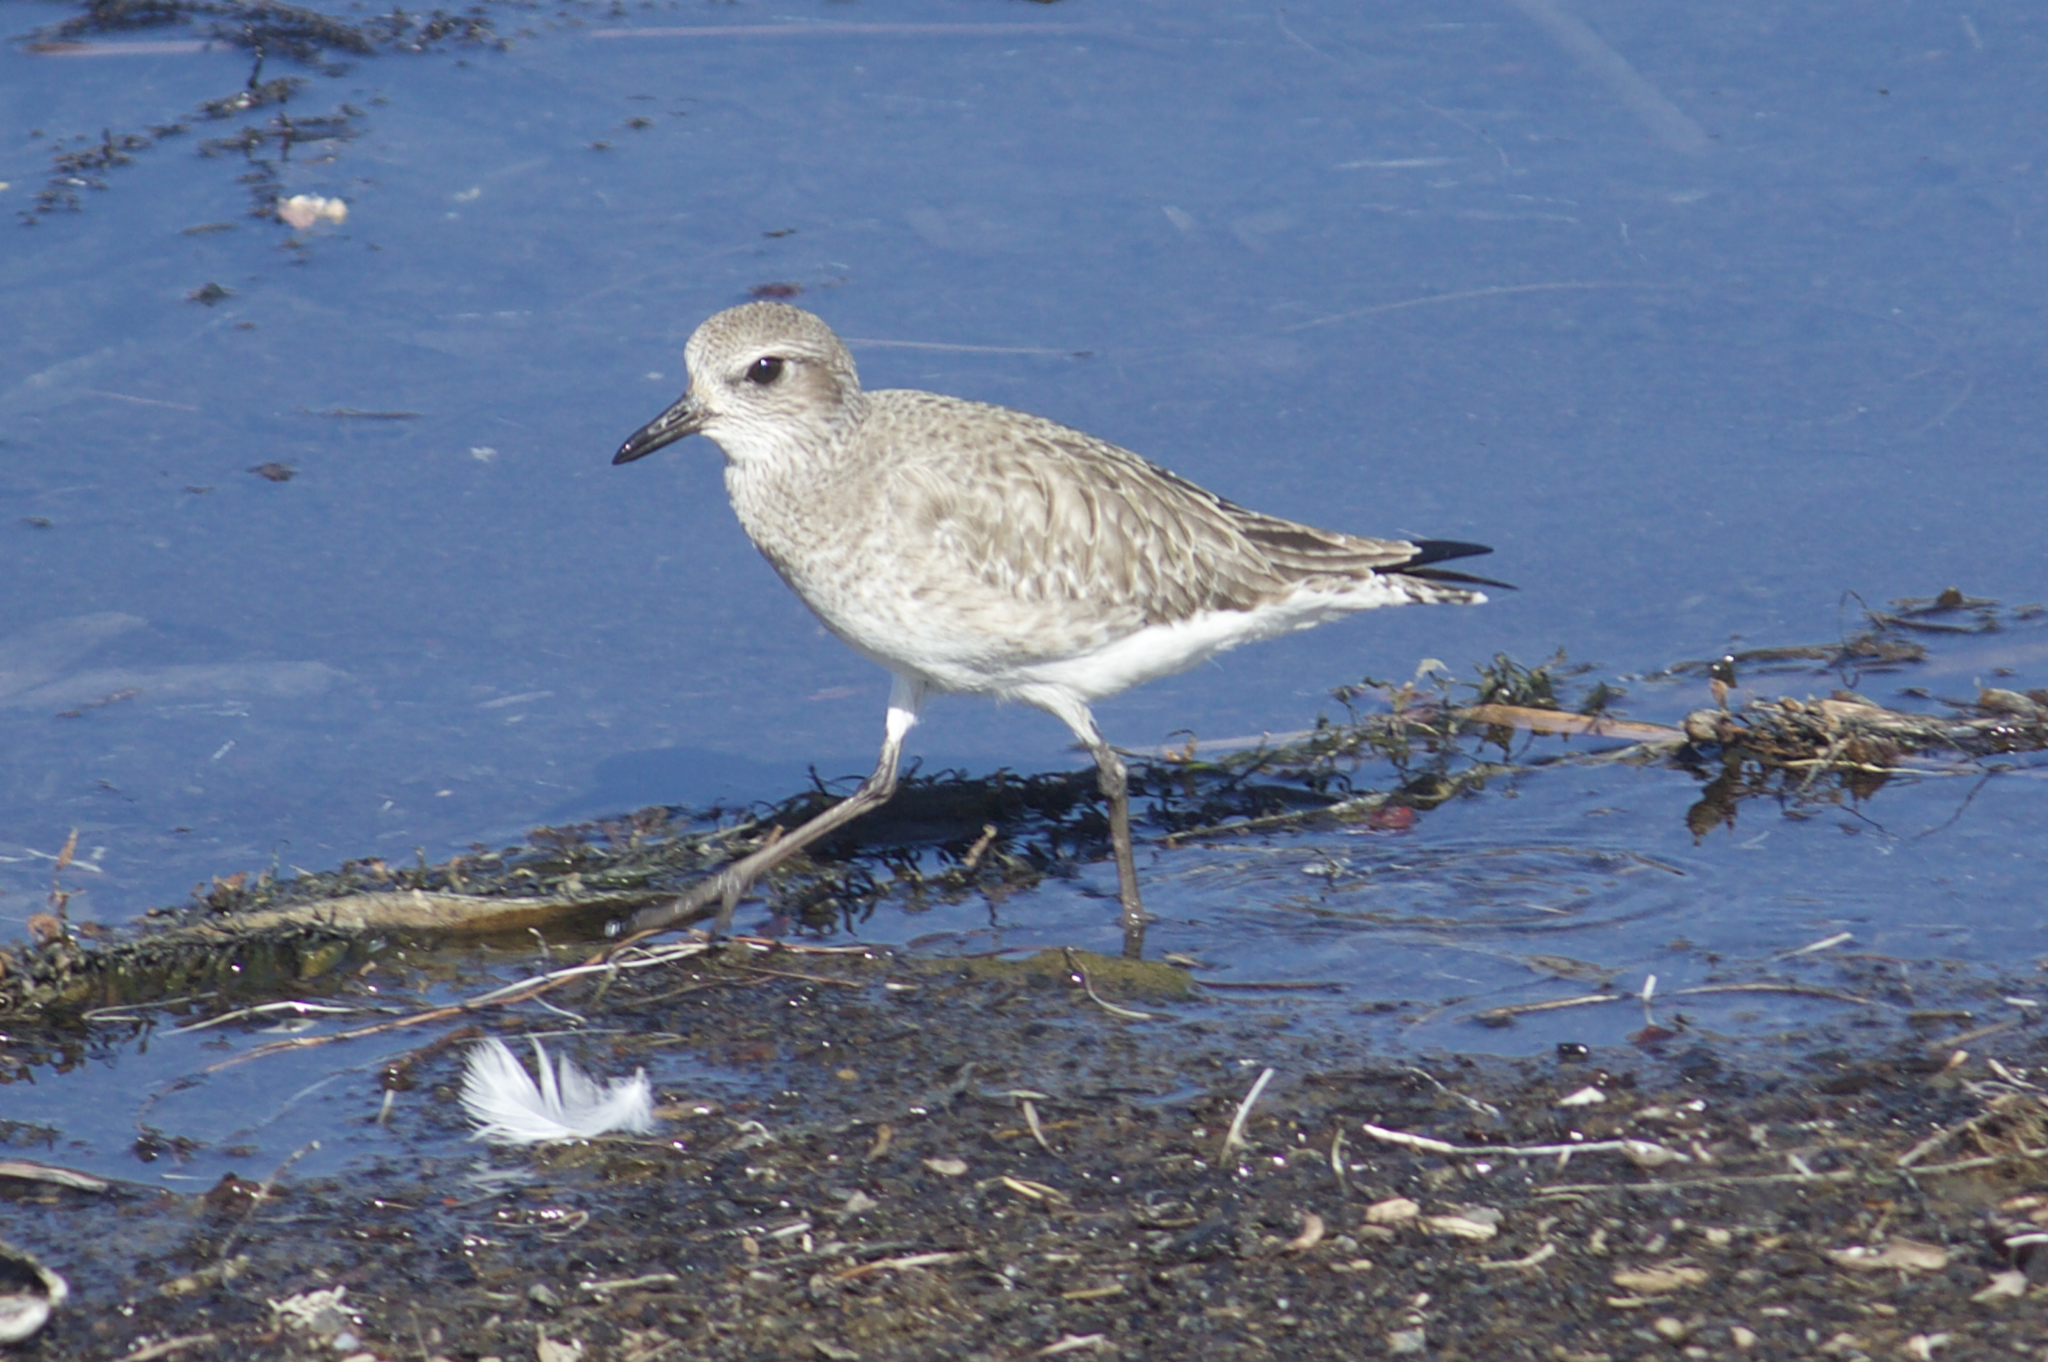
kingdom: Animalia
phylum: Chordata
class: Aves
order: Charadriiformes
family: Charadriidae
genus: Pluvialis
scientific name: Pluvialis squatarola
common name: Grey plover
